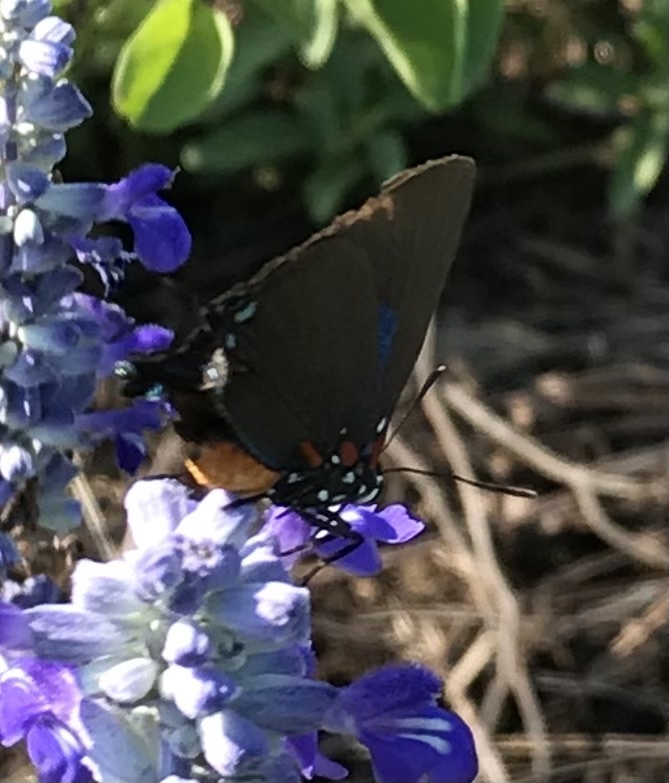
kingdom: Animalia
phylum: Arthropoda
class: Insecta
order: Lepidoptera
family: Lycaenidae
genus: Atlides
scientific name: Atlides halesus
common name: Great purple hairstreak
